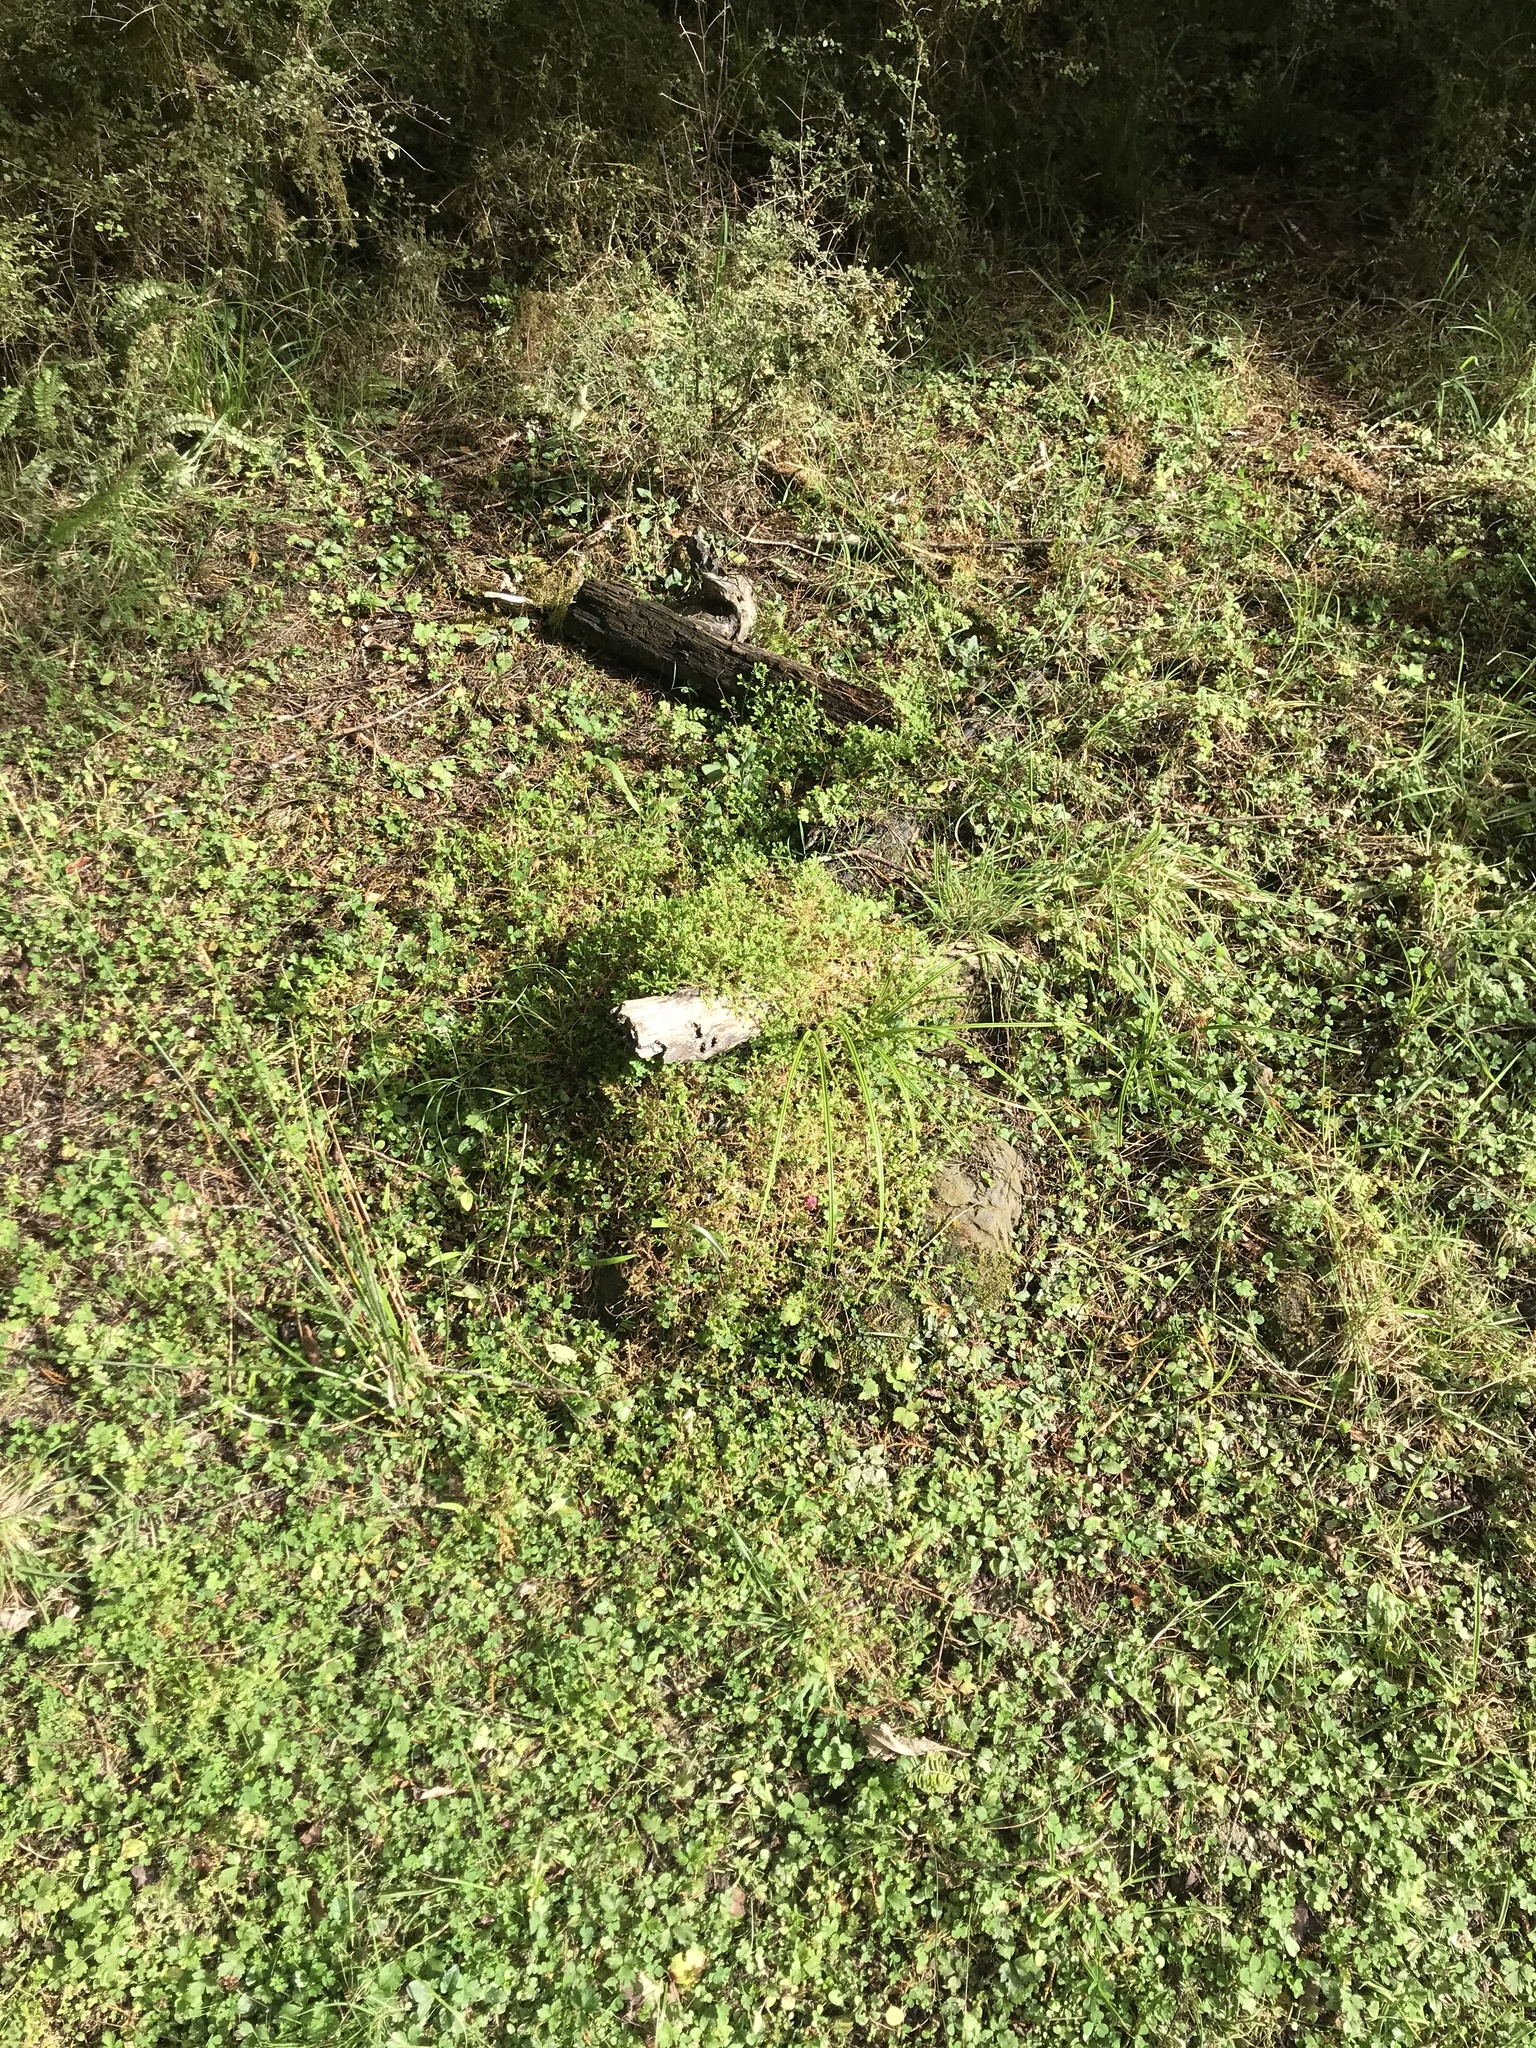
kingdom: Plantae
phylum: Tracheophyta
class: Lycopodiopsida
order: Selaginellales
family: Selaginellaceae
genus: Selaginella
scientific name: Selaginella kraussiana
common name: Krauss' spikemoss
